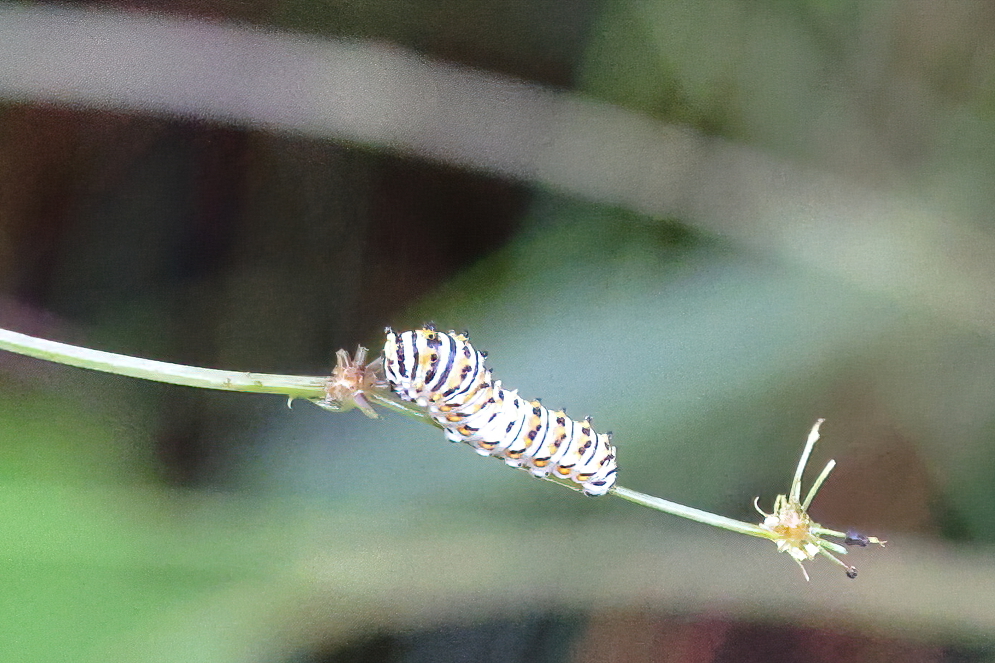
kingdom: Animalia
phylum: Arthropoda
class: Insecta
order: Lepidoptera
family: Papilionidae
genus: Papilio
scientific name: Papilio polyxenes
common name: Black swallowtail
